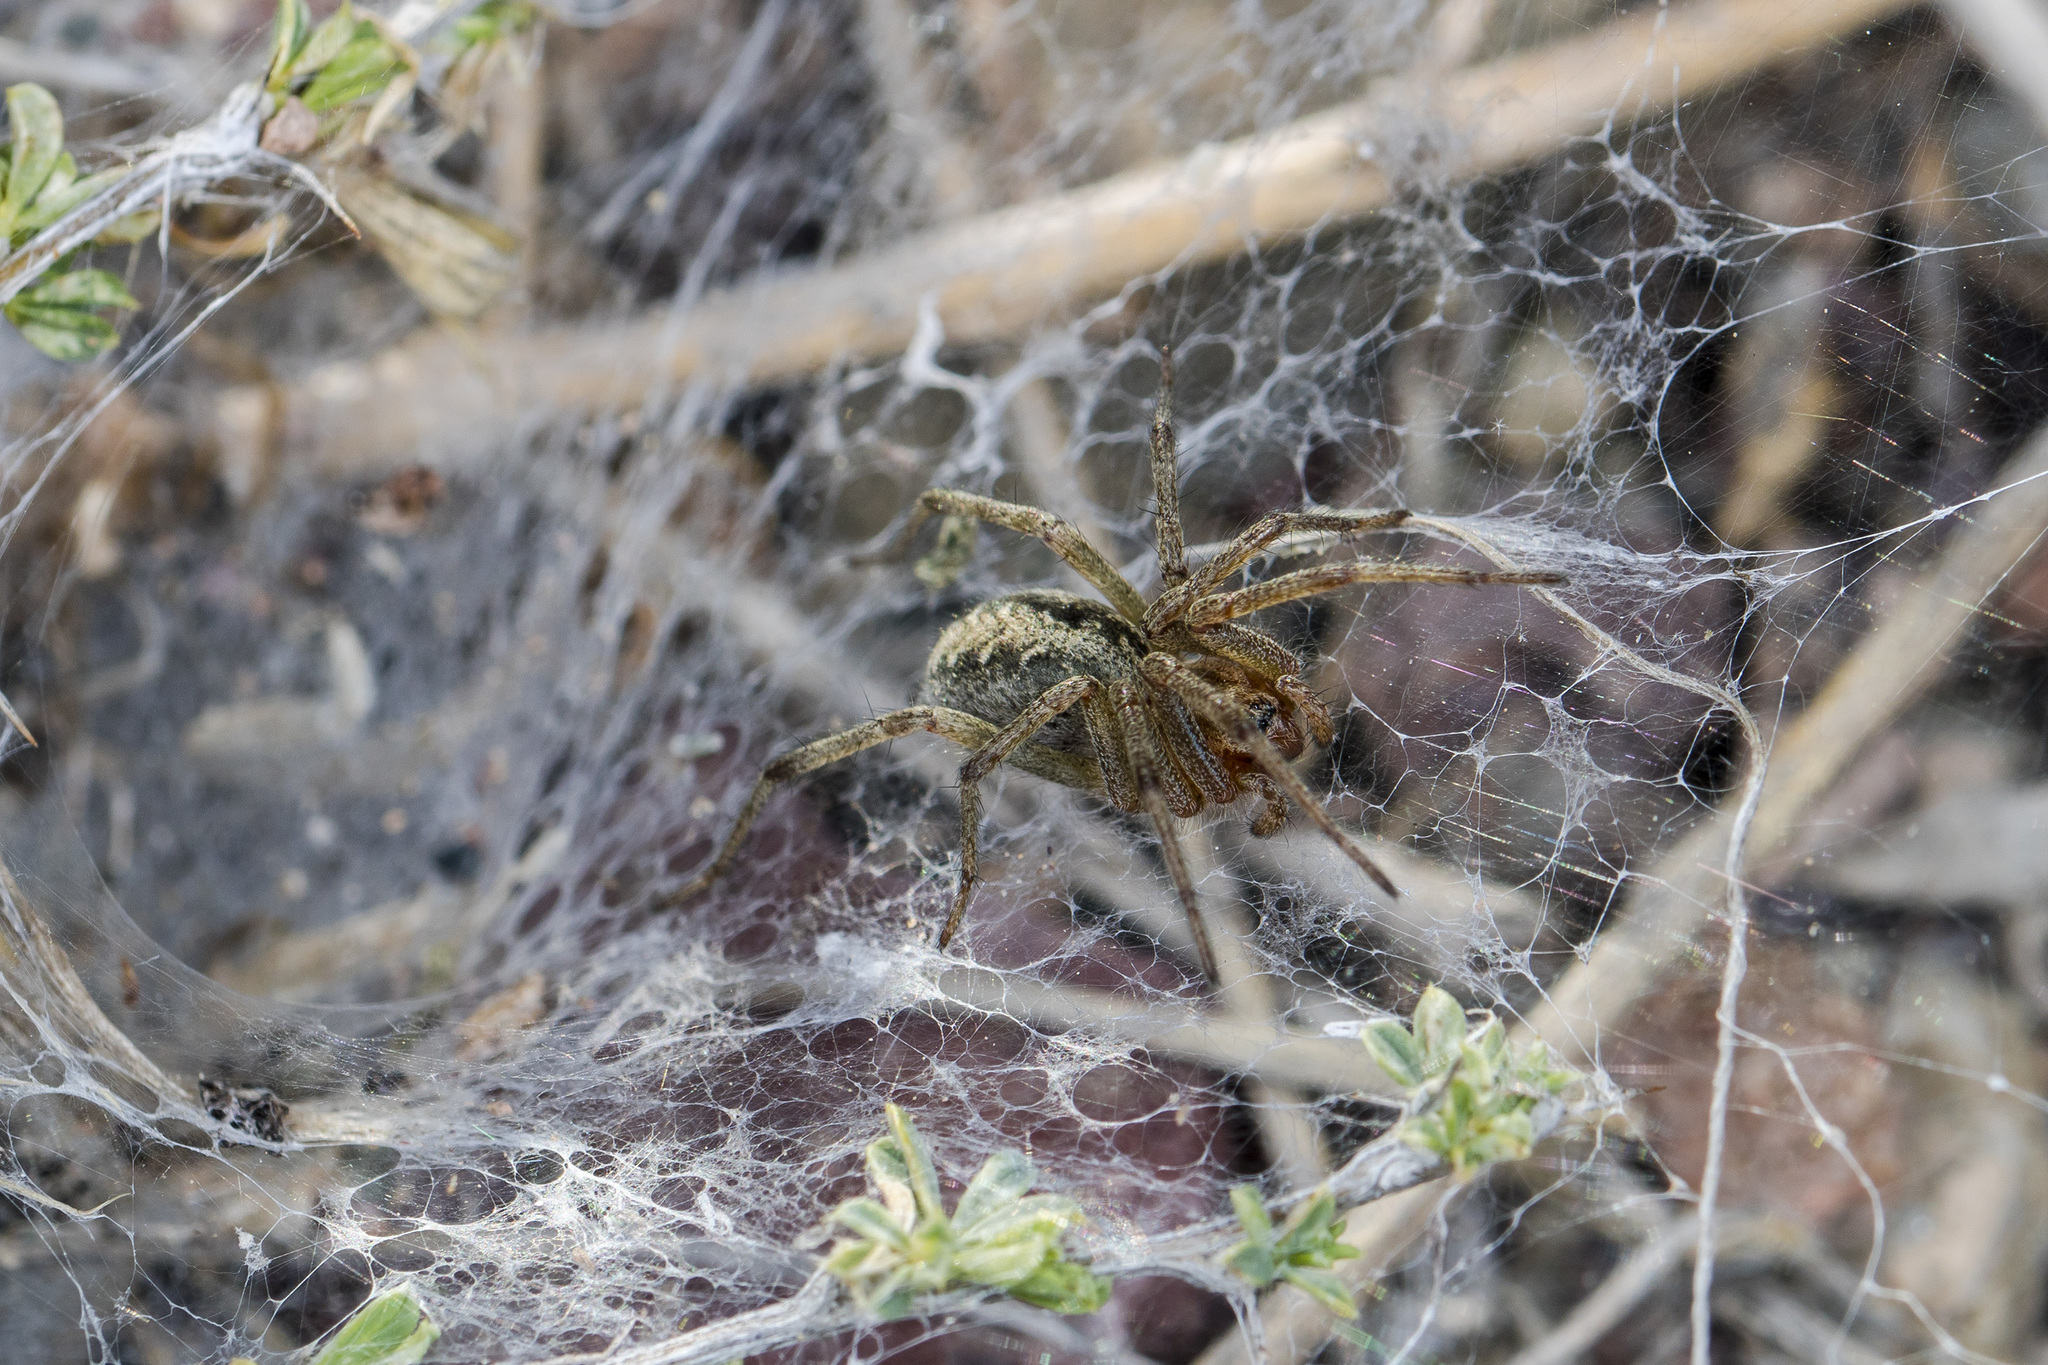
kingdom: Animalia
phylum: Arthropoda
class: Arachnida
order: Araneae
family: Agelenidae
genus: Agelena
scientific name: Agelena labyrinthica
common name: Labyrinth spider
